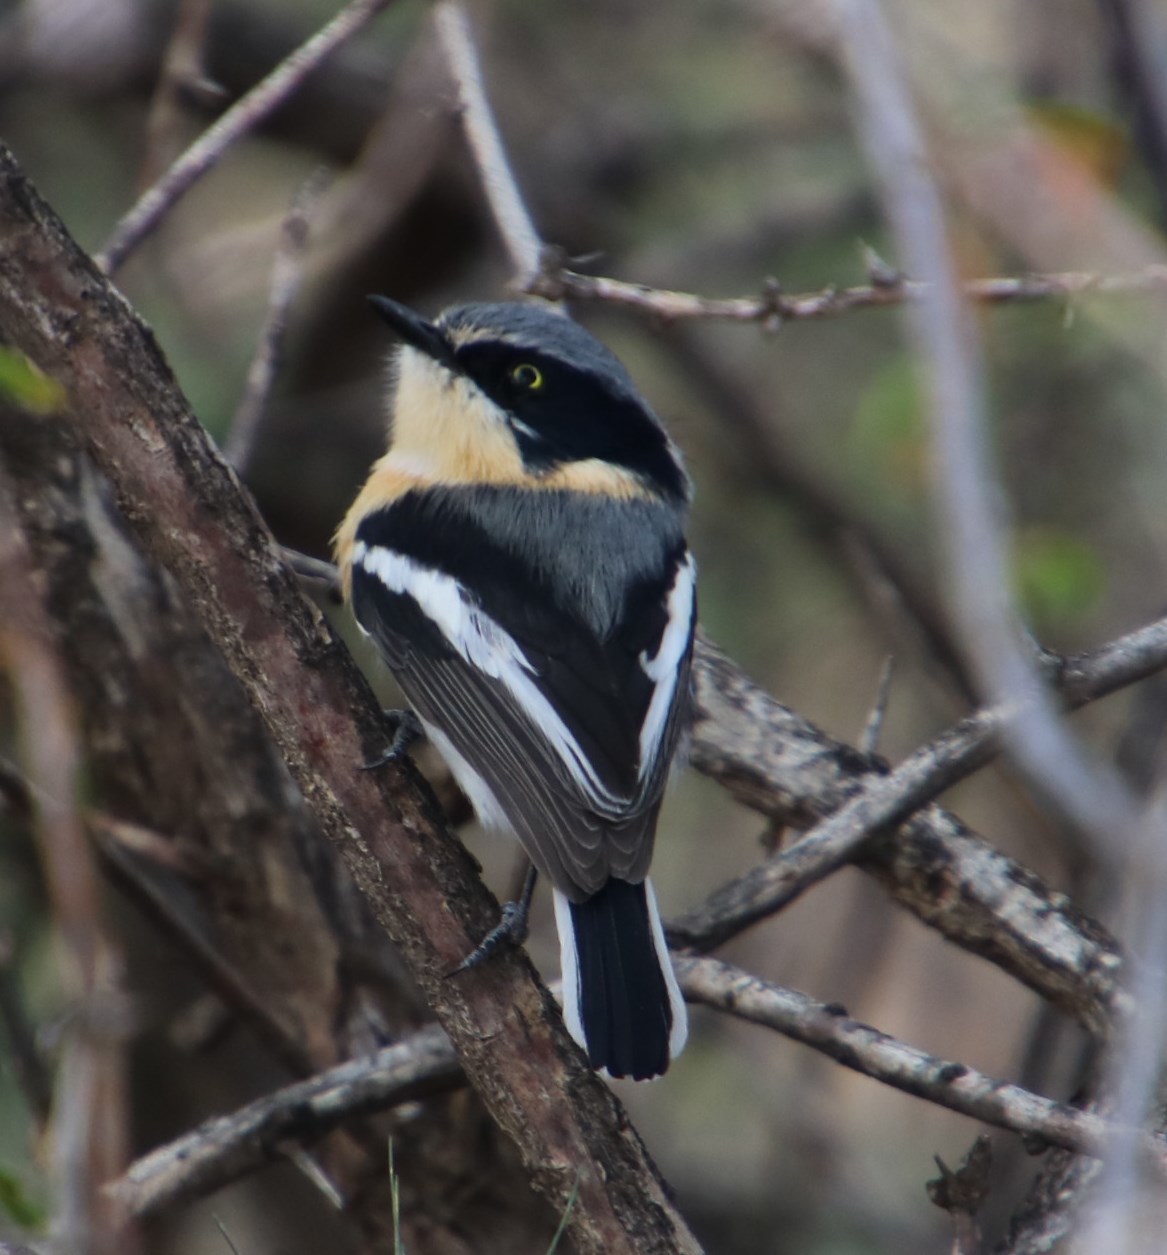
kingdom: Animalia
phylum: Chordata
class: Aves
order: Passeriformes
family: Platysteiridae
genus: Batis
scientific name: Batis pririt
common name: Pririt batis
